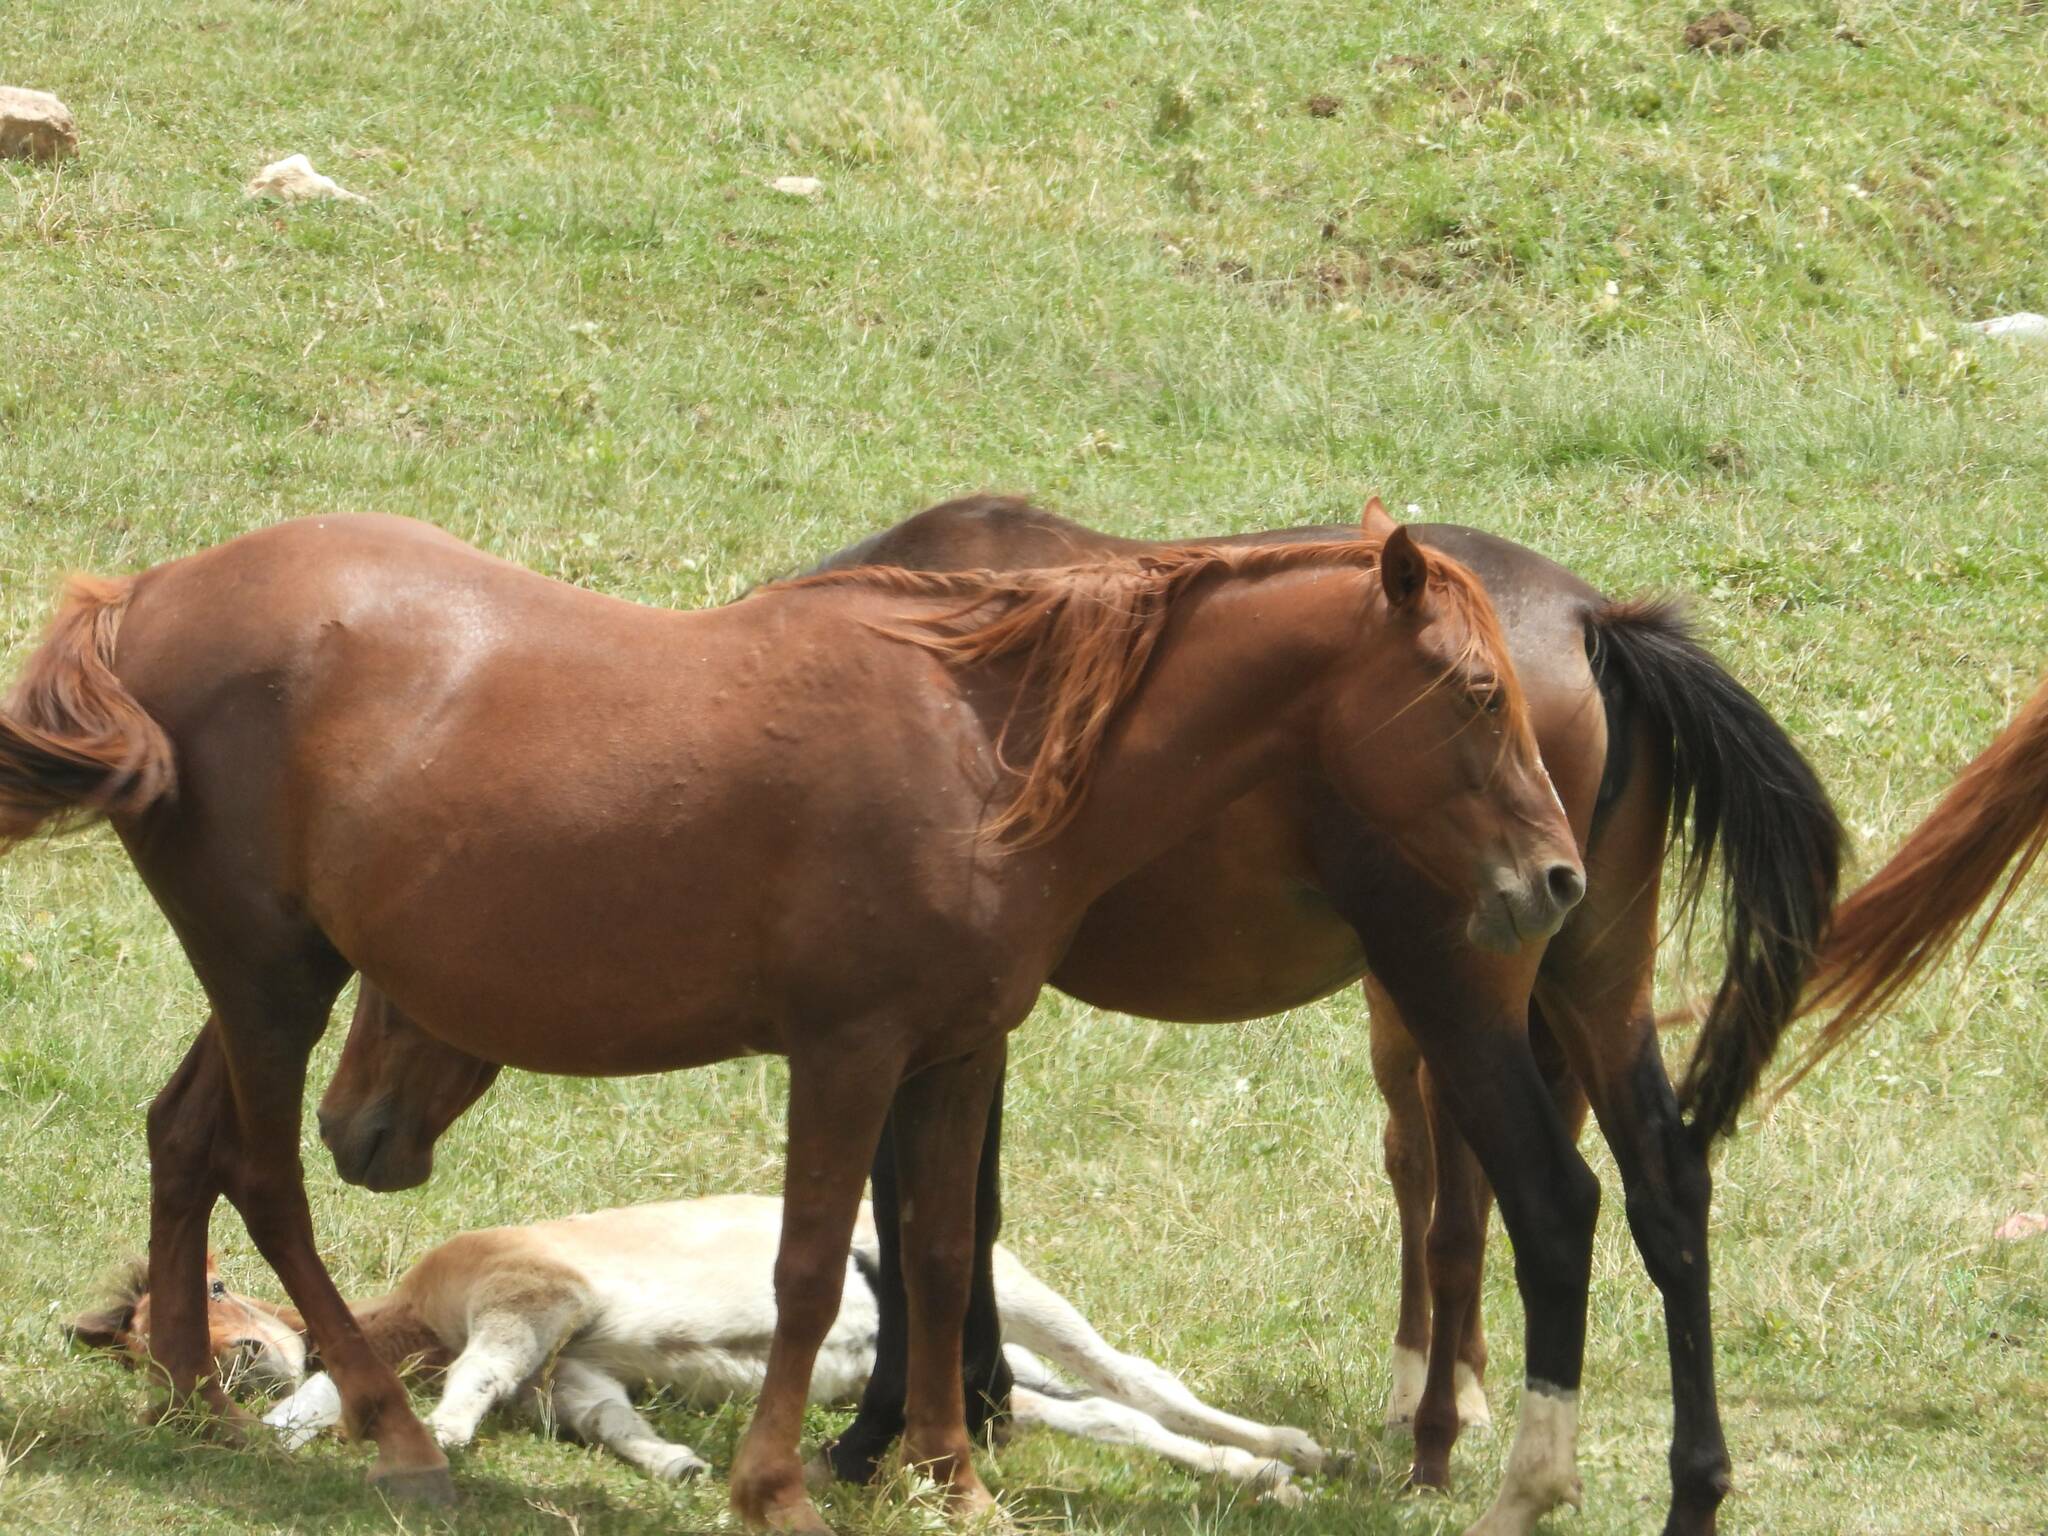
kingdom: Animalia
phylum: Chordata
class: Mammalia
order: Perissodactyla
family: Equidae
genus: Equus
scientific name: Equus caballus
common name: Horse
